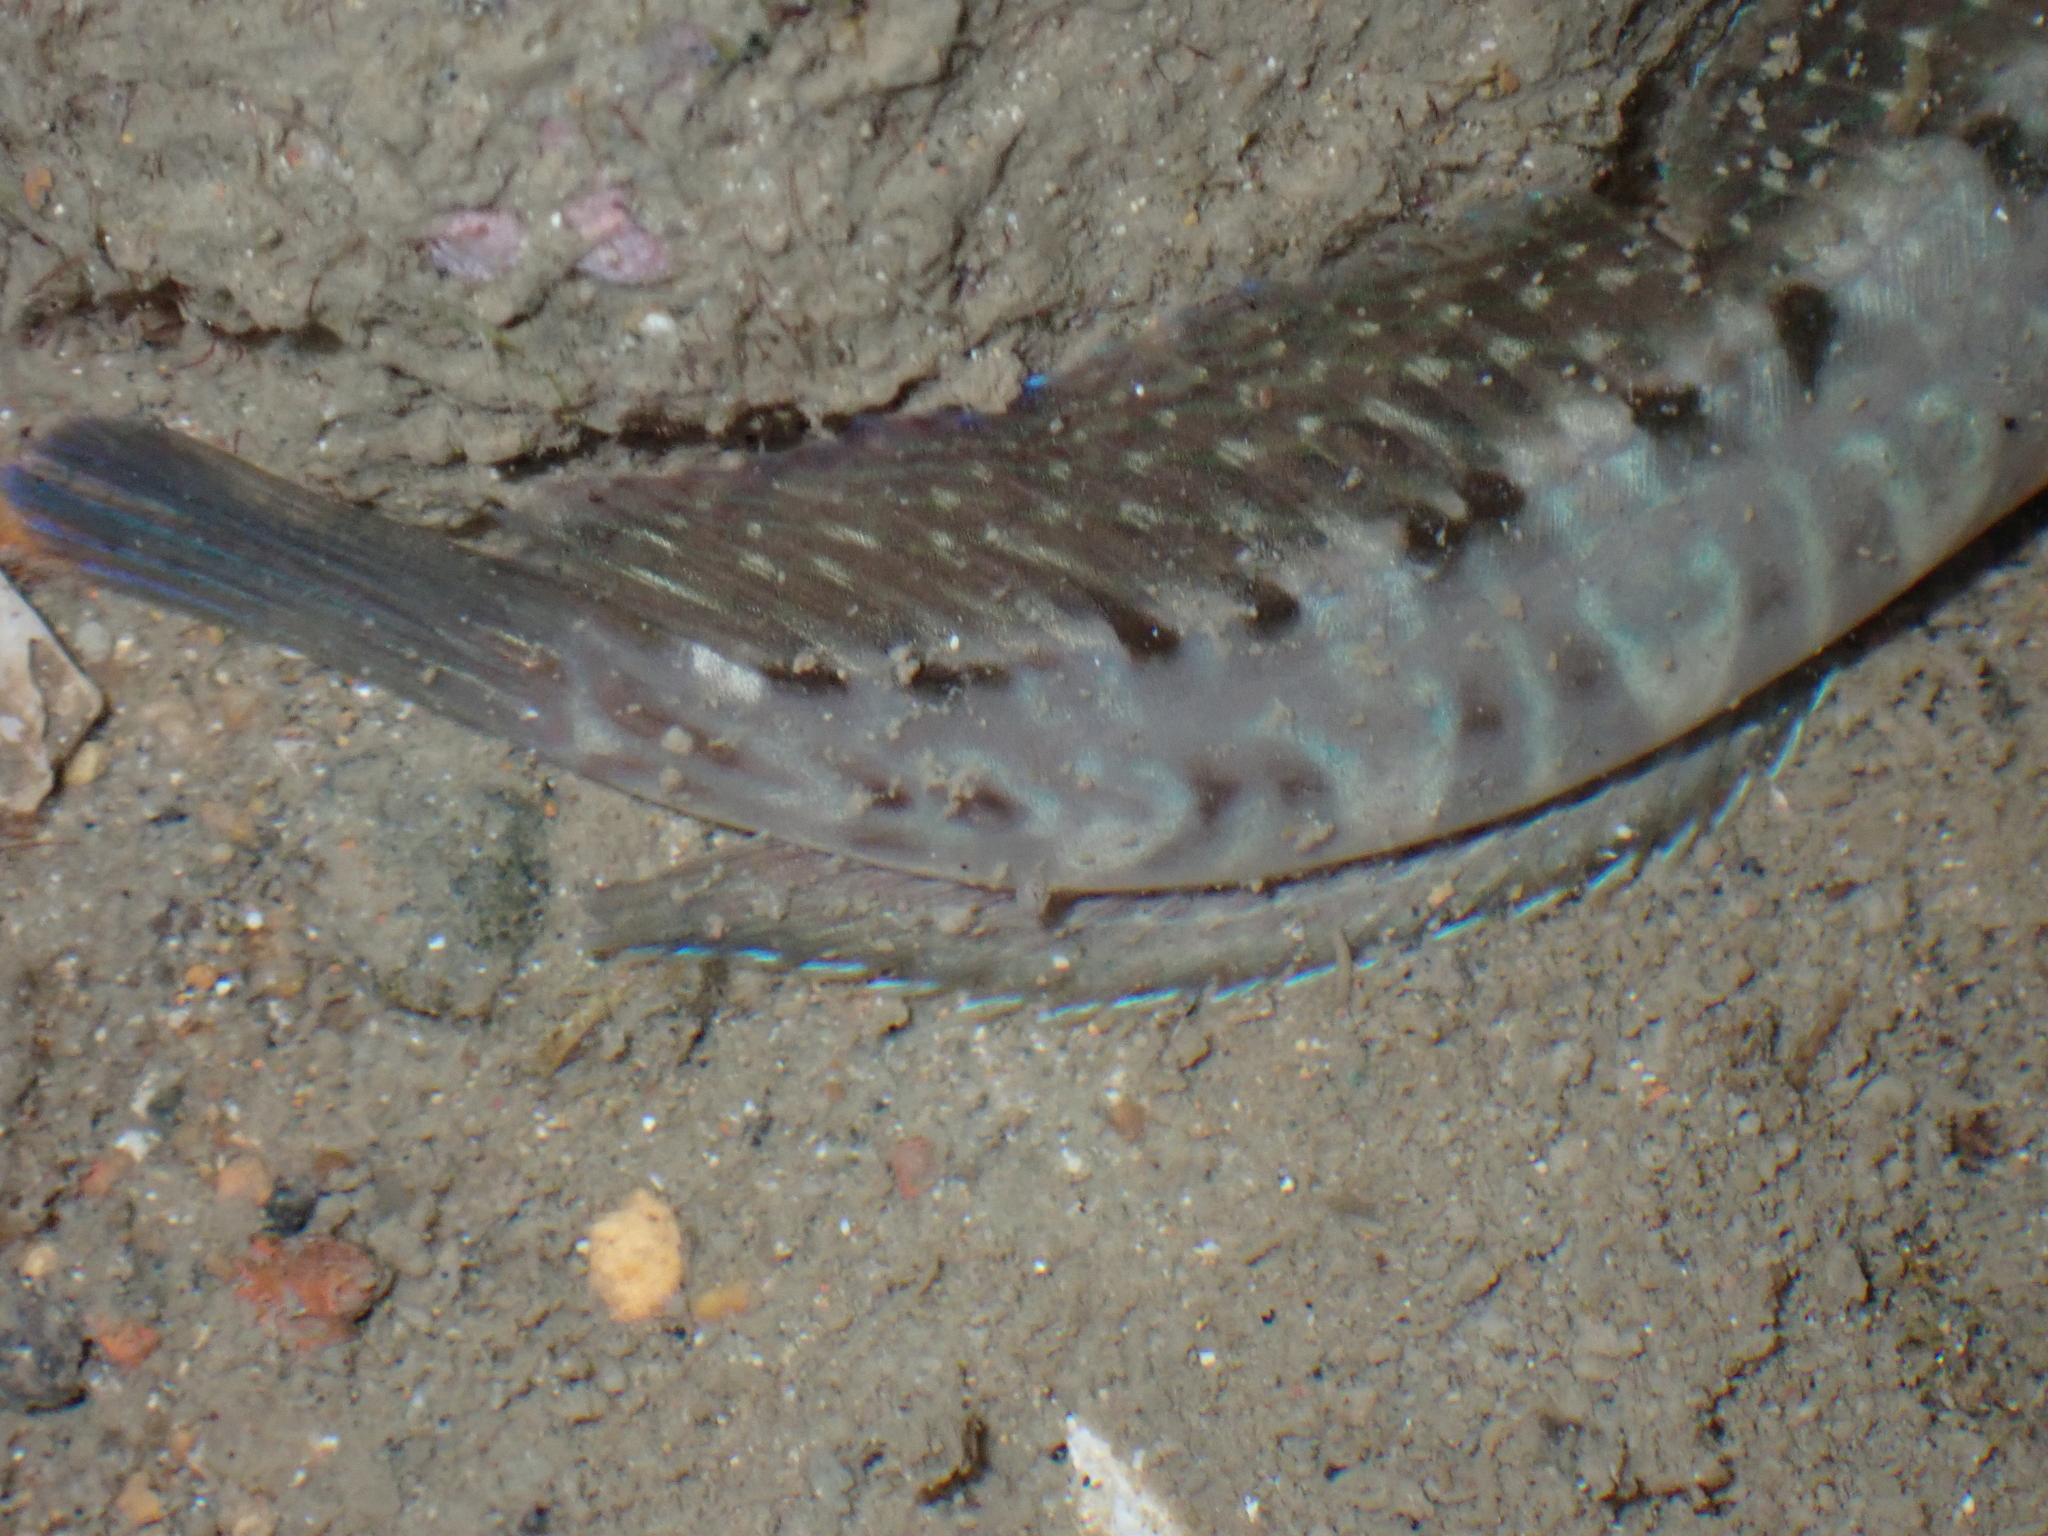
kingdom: Animalia
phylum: Chordata
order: Perciformes
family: Blenniidae
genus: Istiblennius
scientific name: Istiblennius edentulus
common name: Rippled rockskipper
